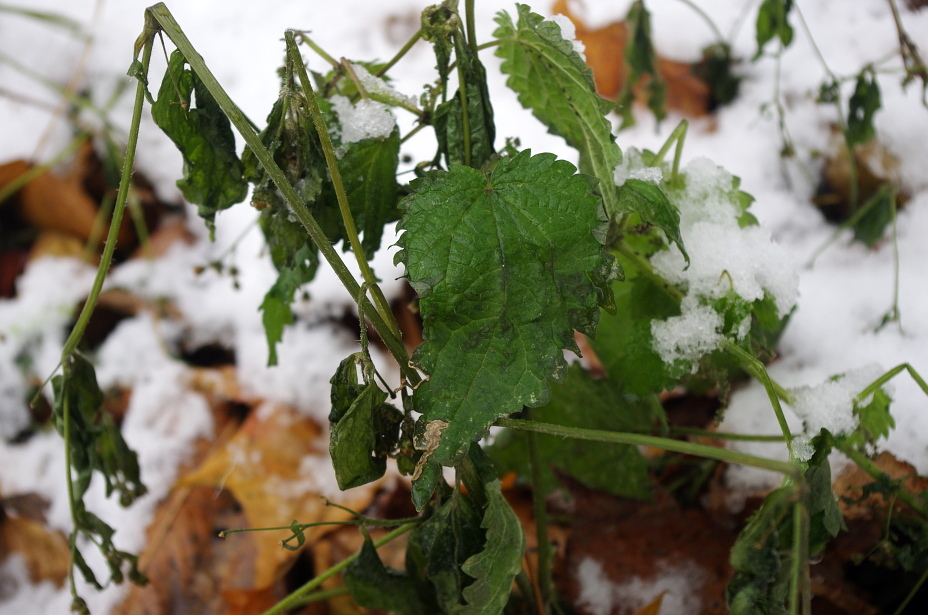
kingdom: Plantae
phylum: Tracheophyta
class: Magnoliopsida
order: Rosales
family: Urticaceae
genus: Urtica
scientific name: Urtica dioica
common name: Common nettle
